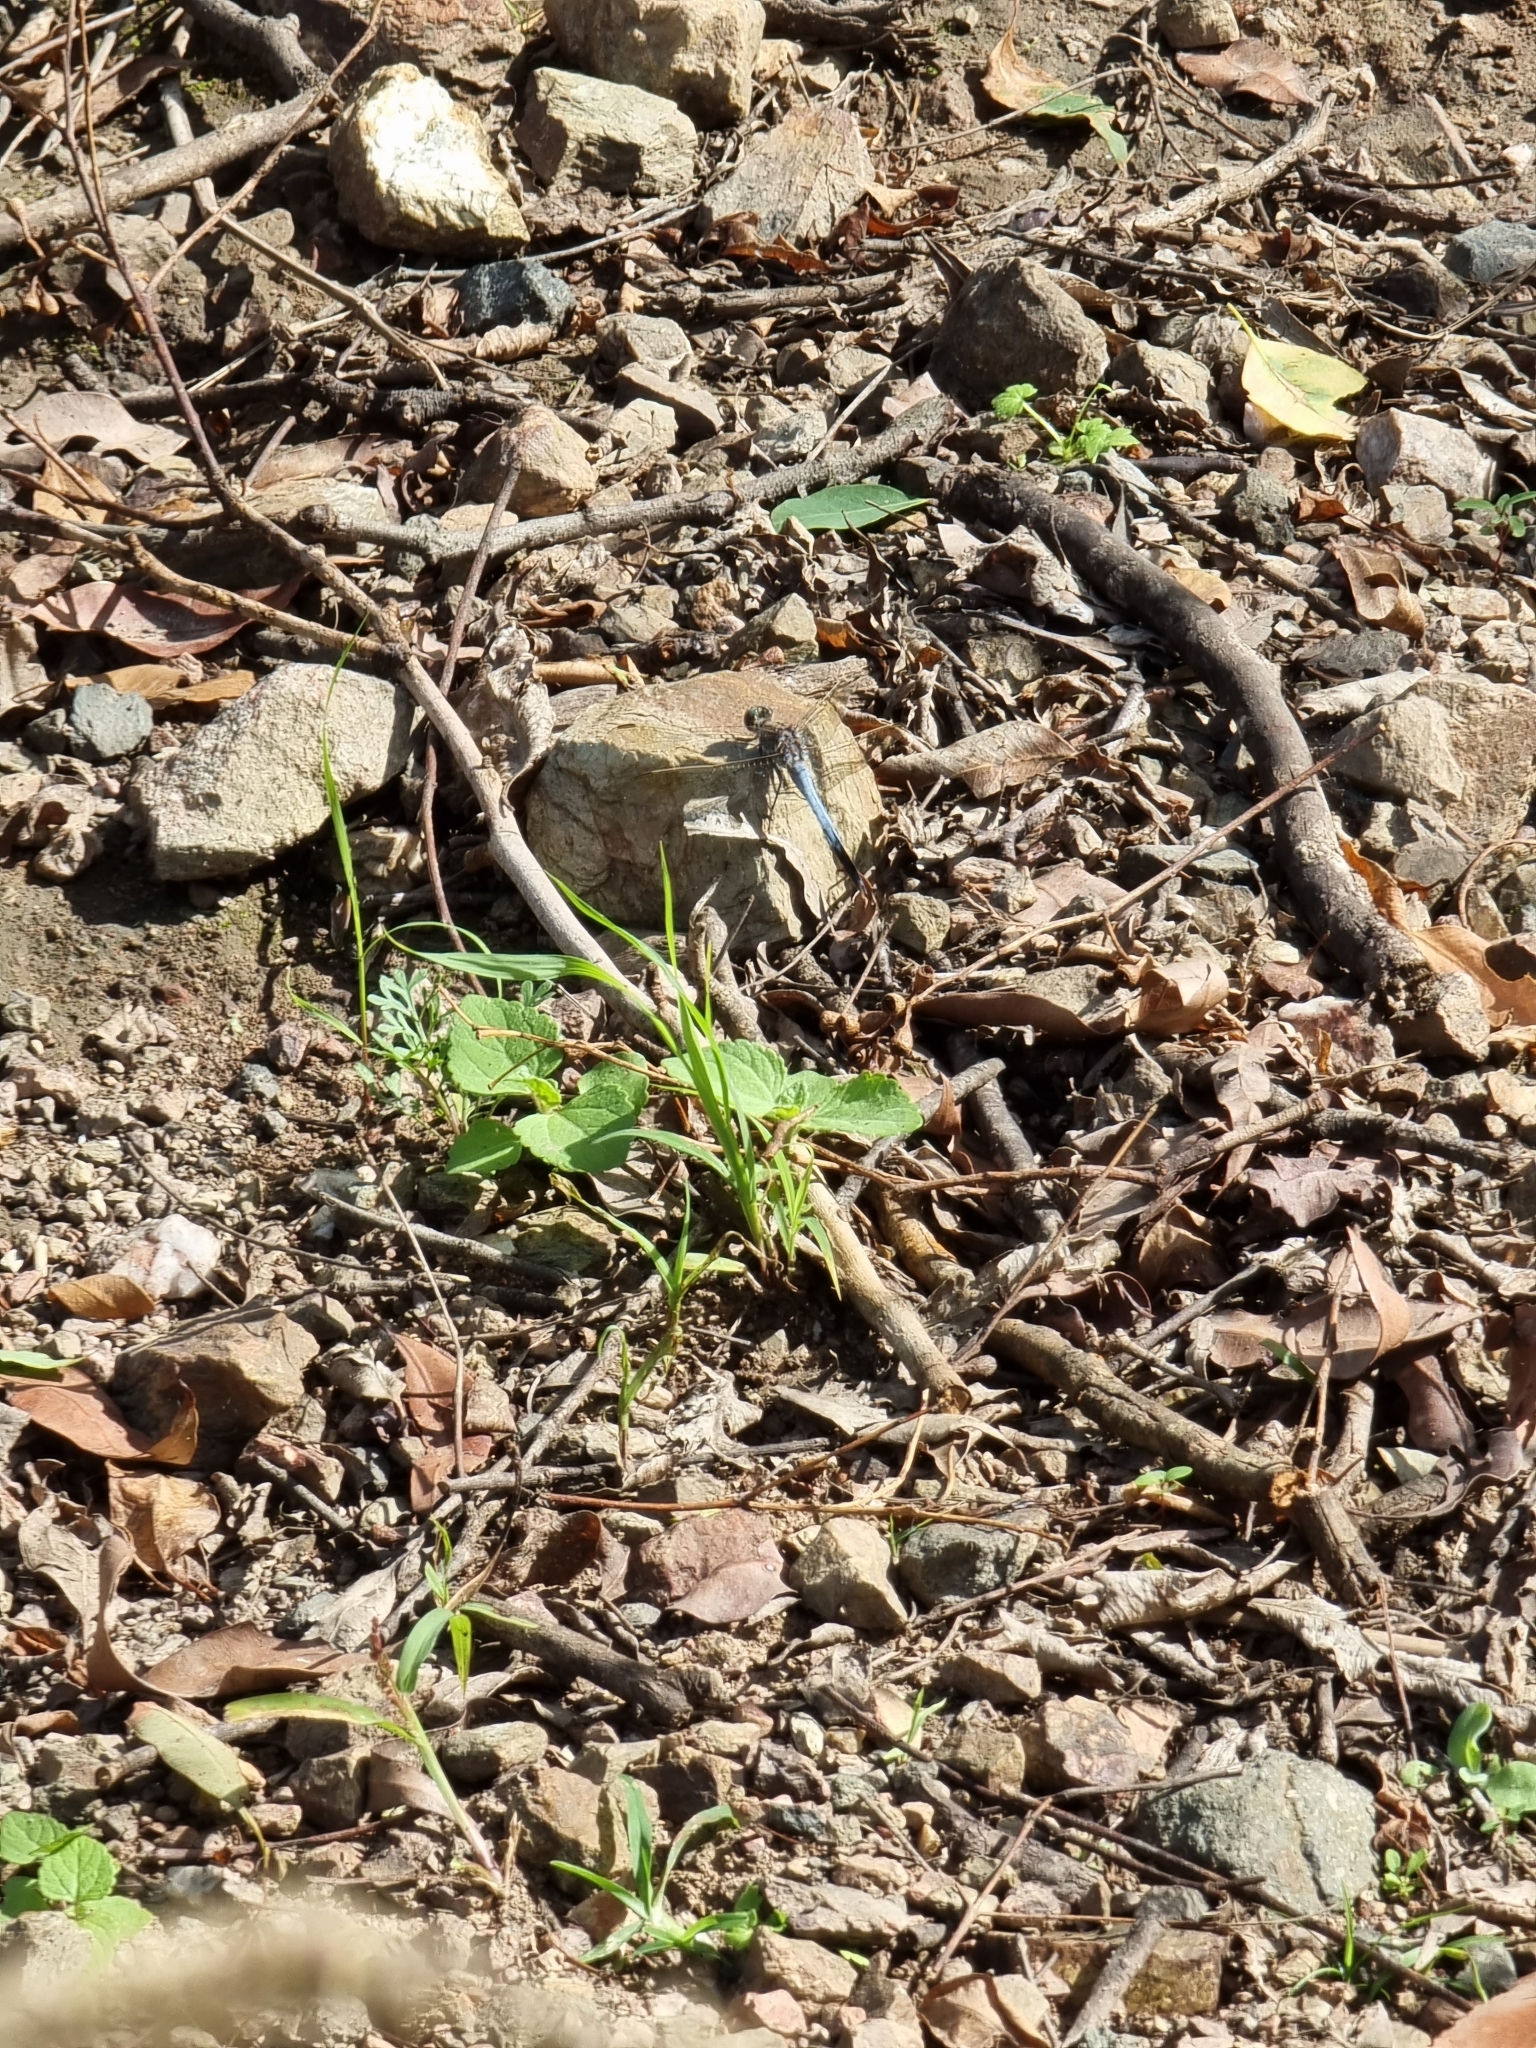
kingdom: Animalia
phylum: Arthropoda
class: Insecta
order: Odonata
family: Libellulidae
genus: Orthetrum
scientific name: Orthetrum caledonicum
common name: Blue skimmer
